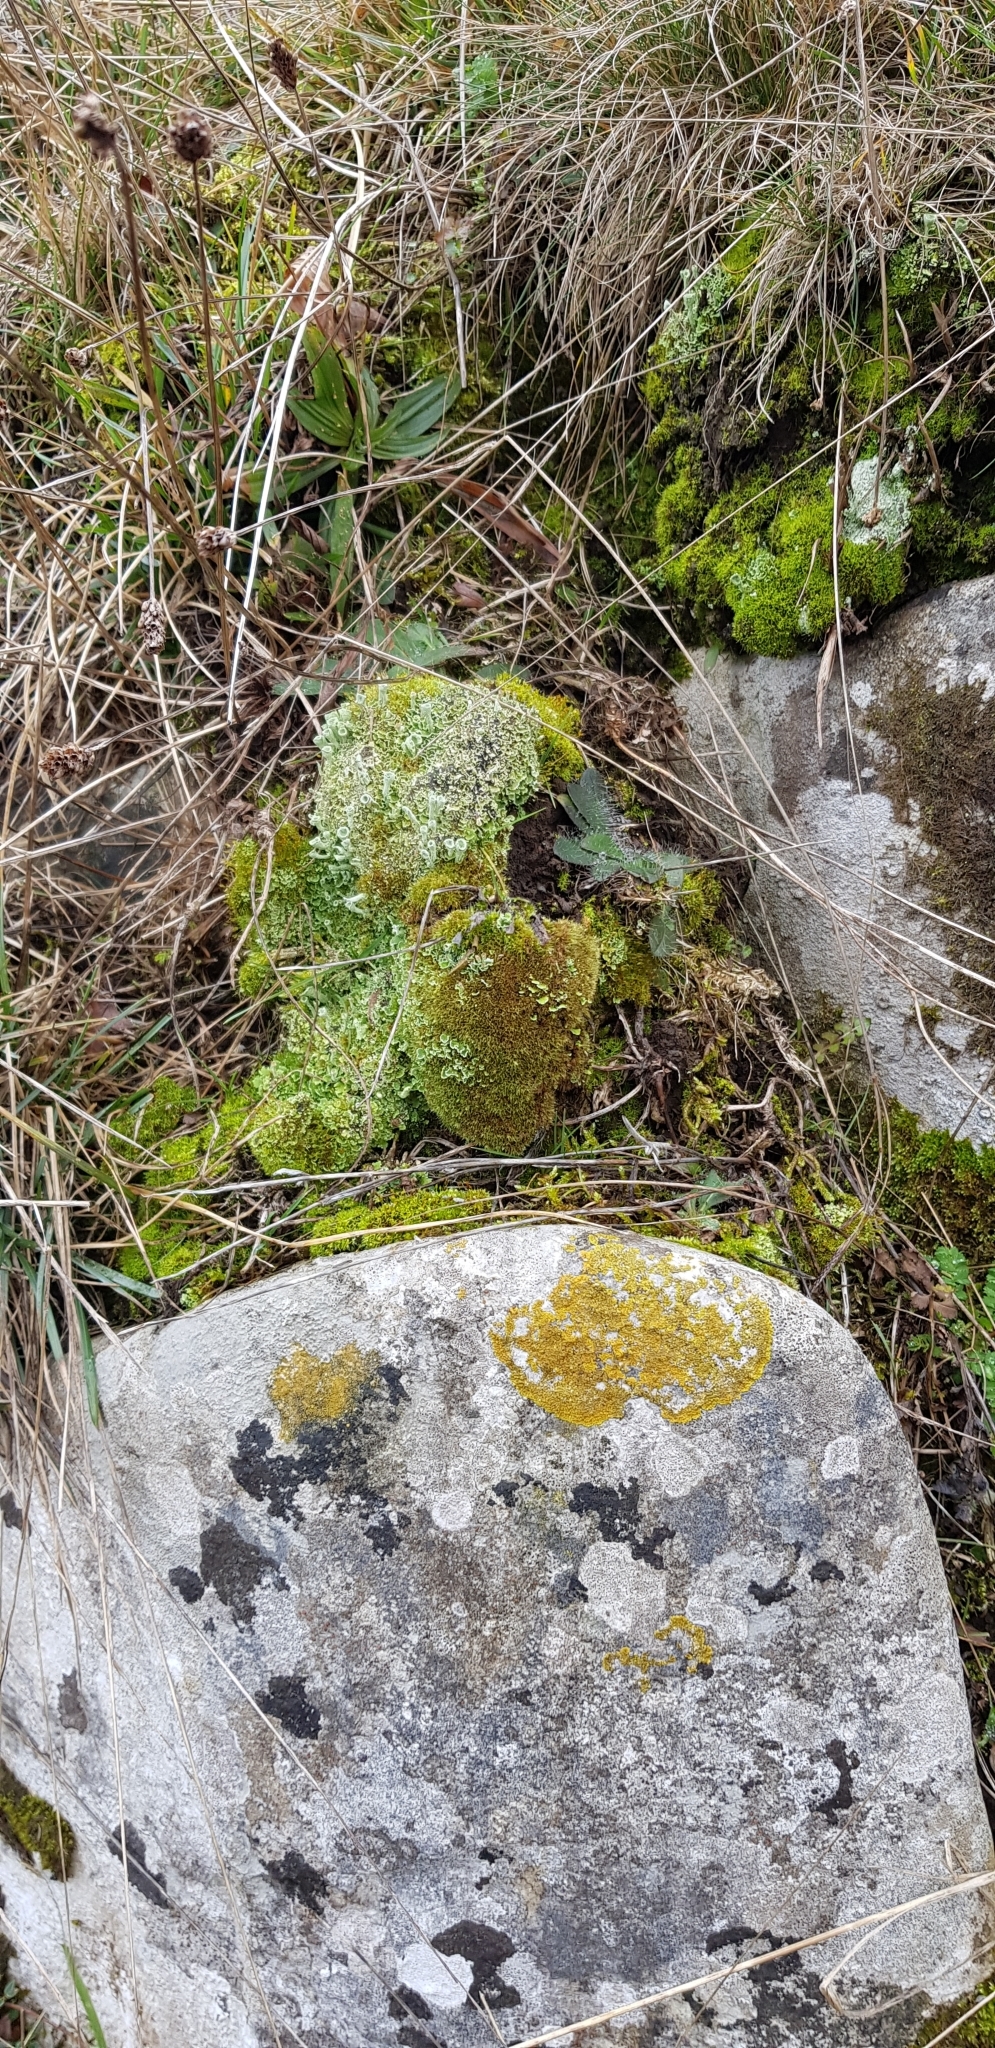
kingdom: Plantae
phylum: Bryophyta
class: Bryopsida
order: Bryales
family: Bryaceae
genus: Rosulabryum
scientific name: Rosulabryum capillare
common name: Capillary thread-moss
